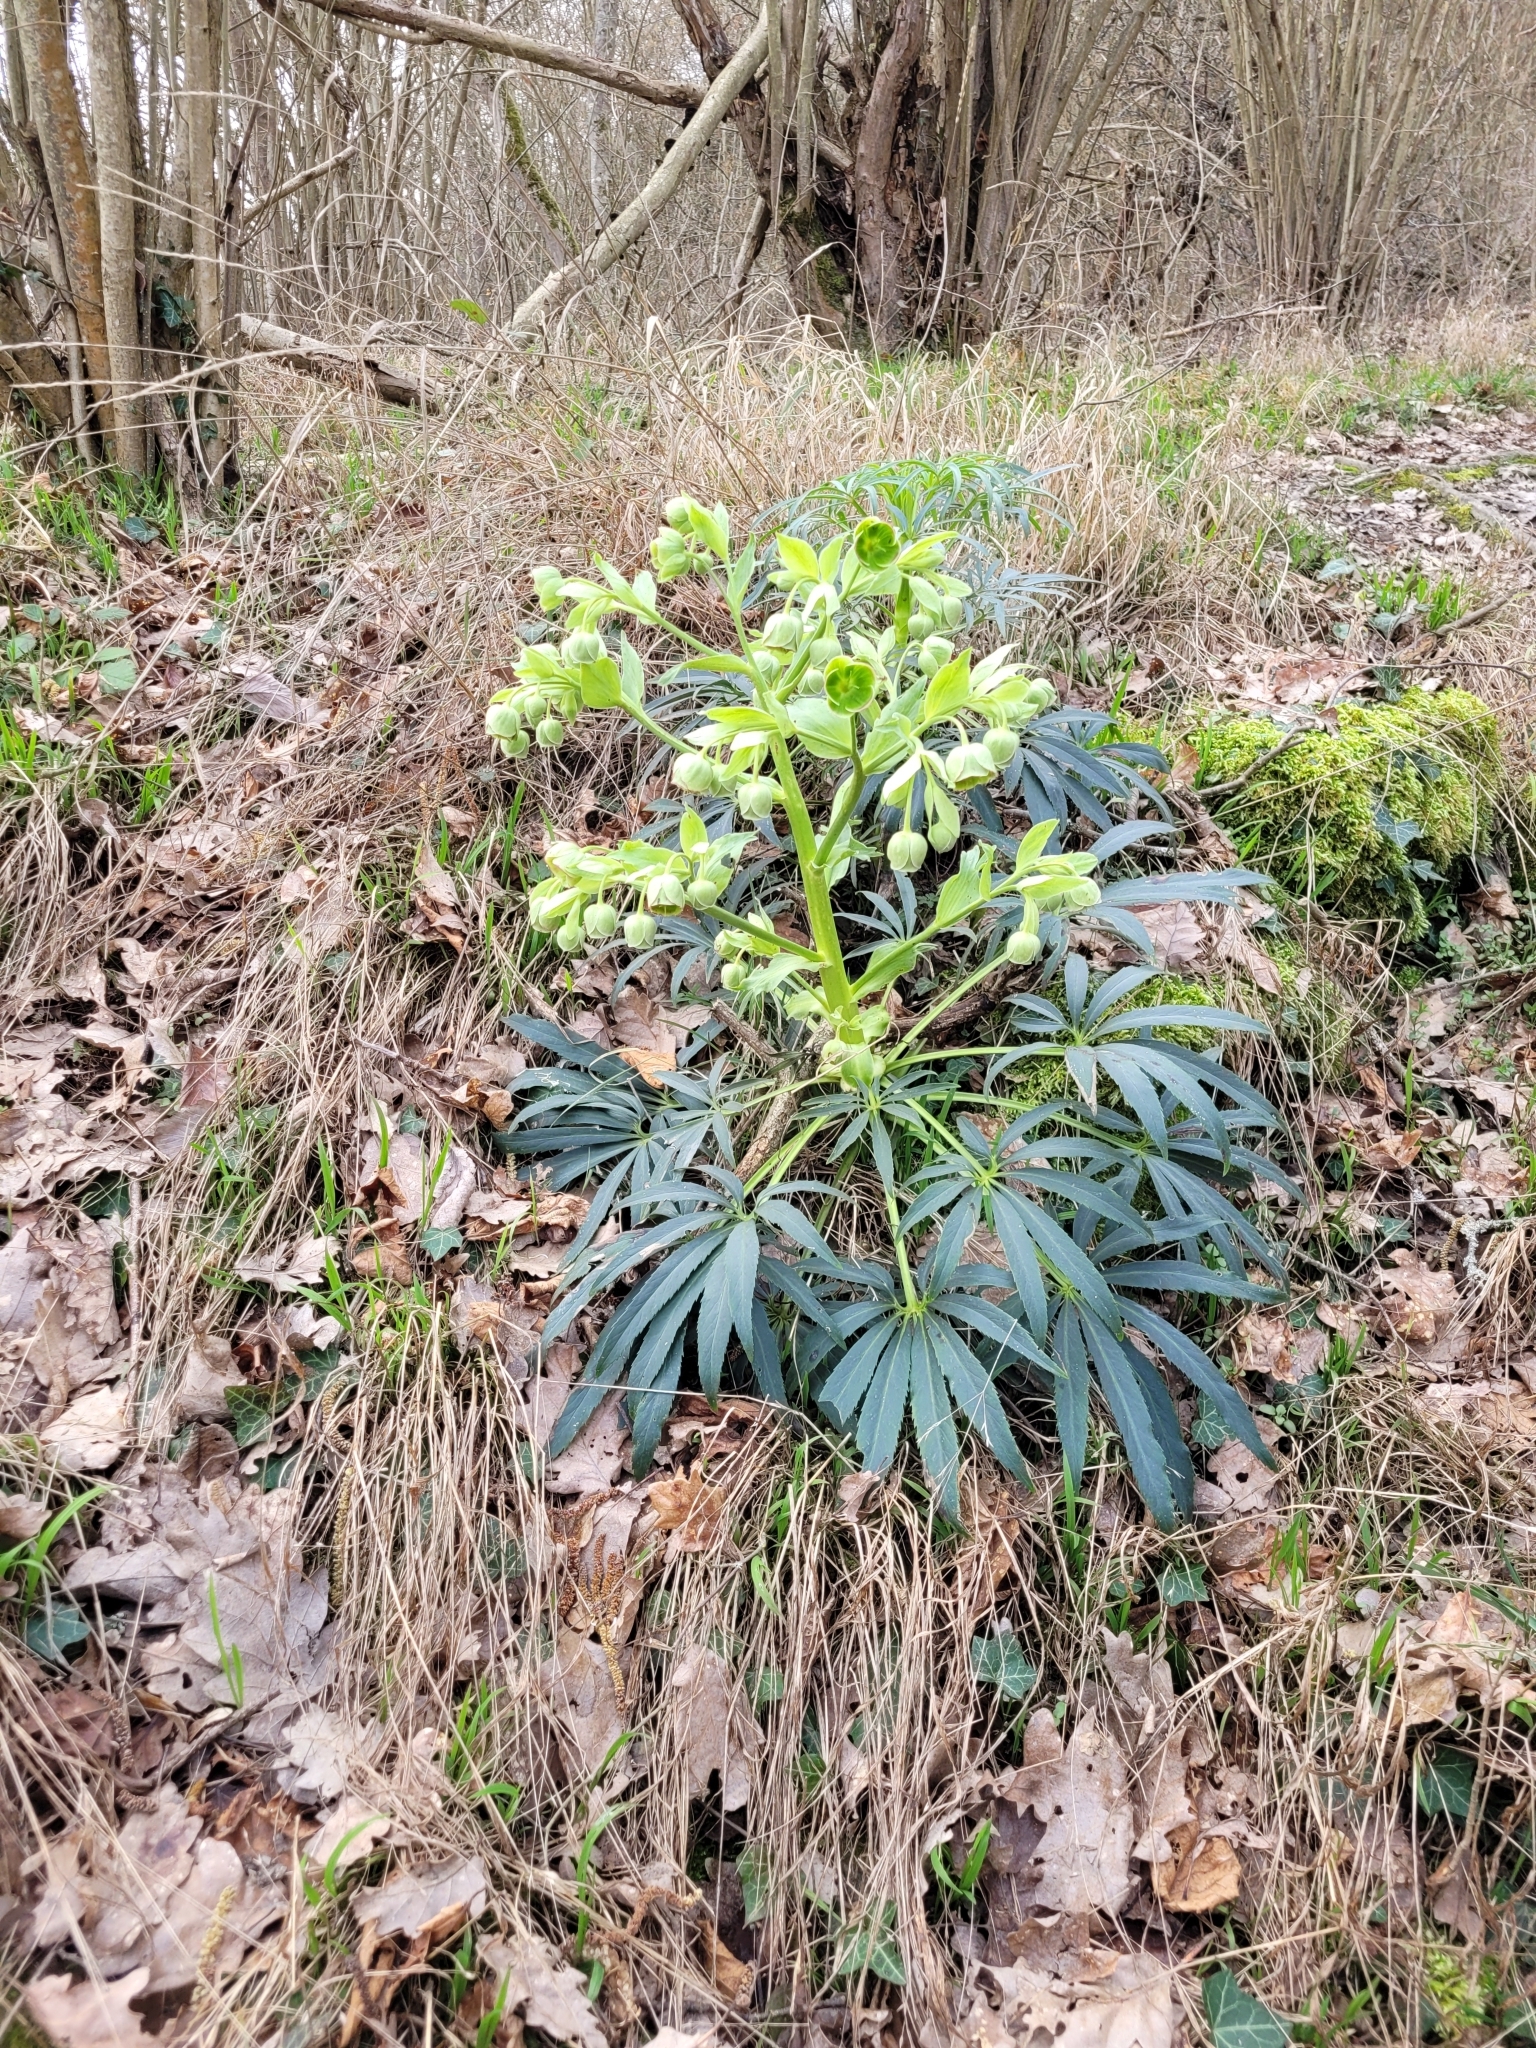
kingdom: Plantae
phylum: Tracheophyta
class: Magnoliopsida
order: Ranunculales
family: Ranunculaceae
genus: Helleborus
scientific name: Helleborus foetidus
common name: Stinking hellebore
